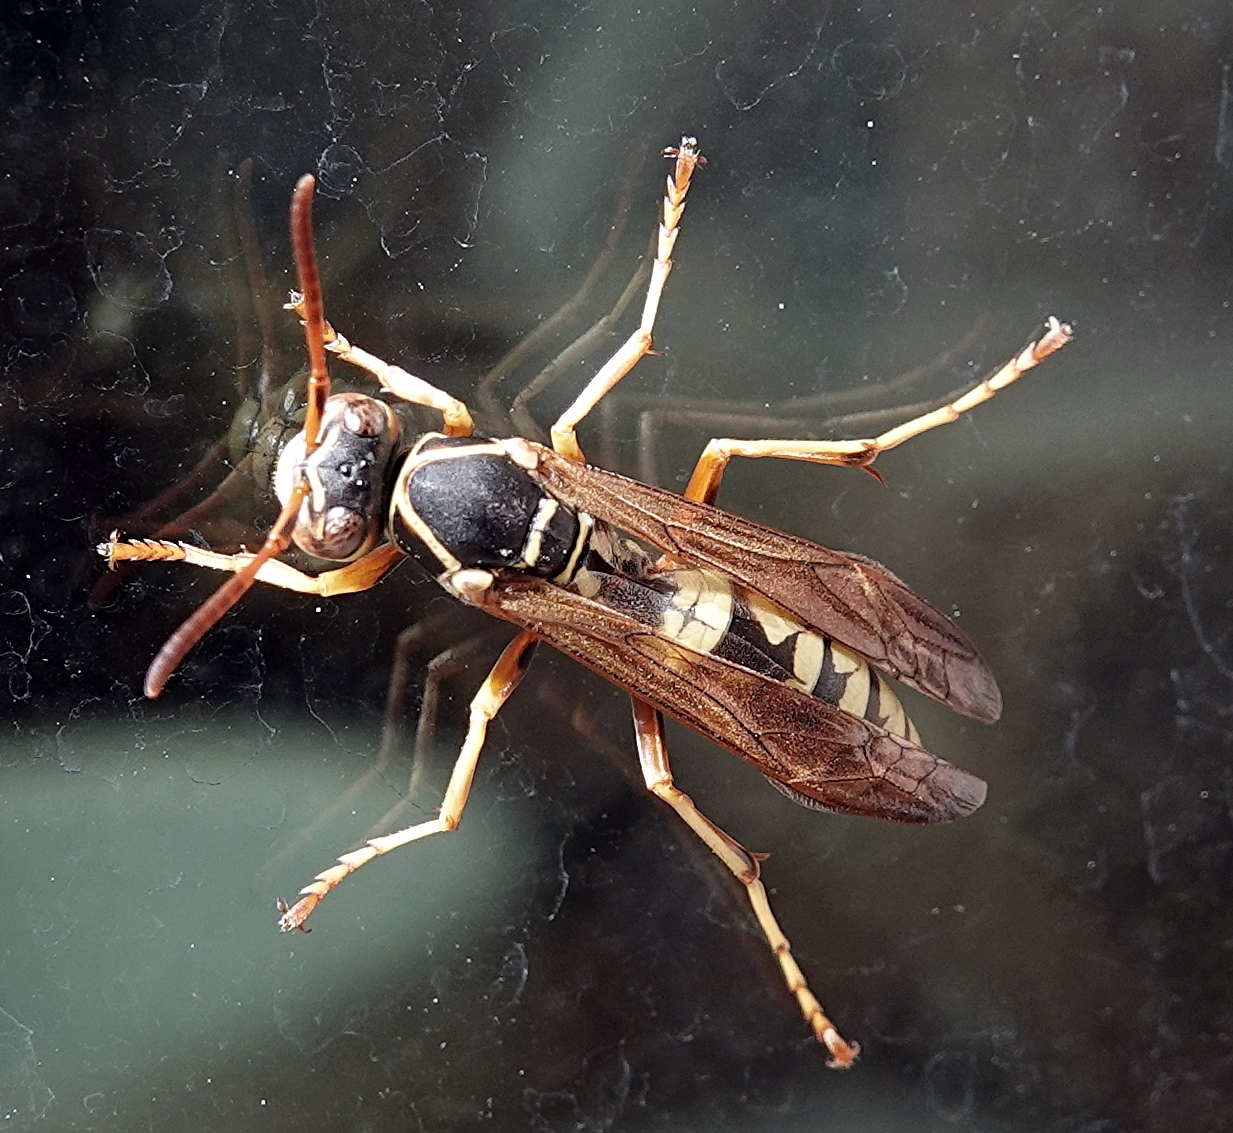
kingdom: Animalia
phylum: Arthropoda
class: Insecta
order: Hymenoptera
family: Eumenidae
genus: Polistes
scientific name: Polistes aurifer
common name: Paper wasp
